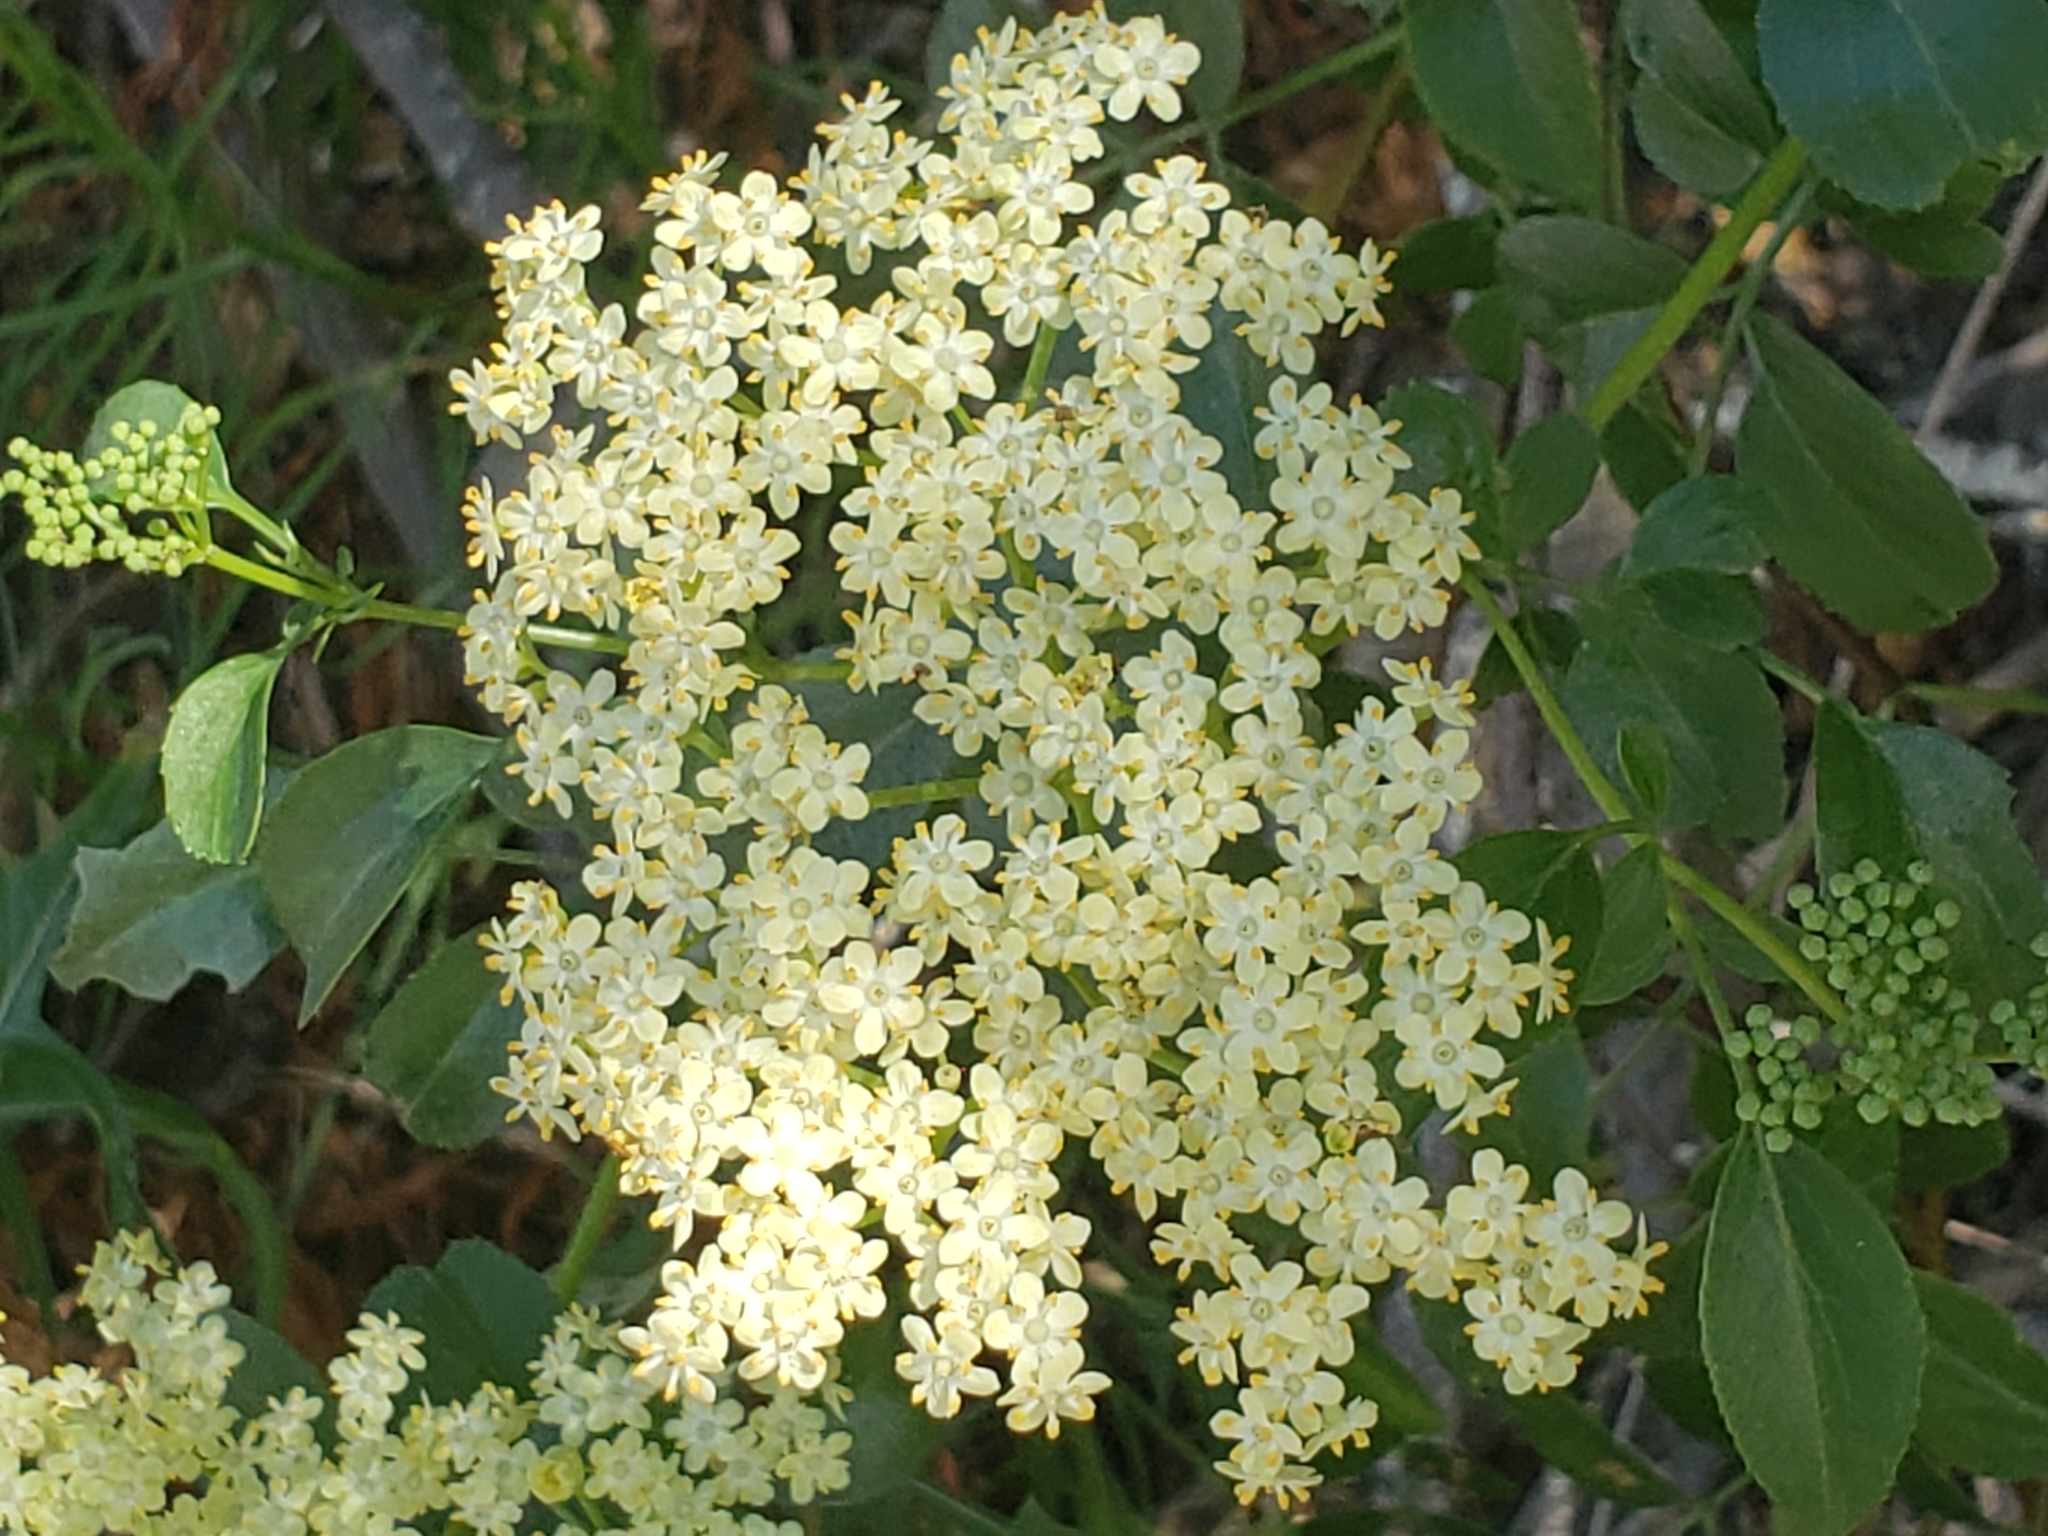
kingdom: Plantae
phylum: Tracheophyta
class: Magnoliopsida
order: Dipsacales
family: Viburnaceae
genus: Sambucus
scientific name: Sambucus cerulea
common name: Blue elder
